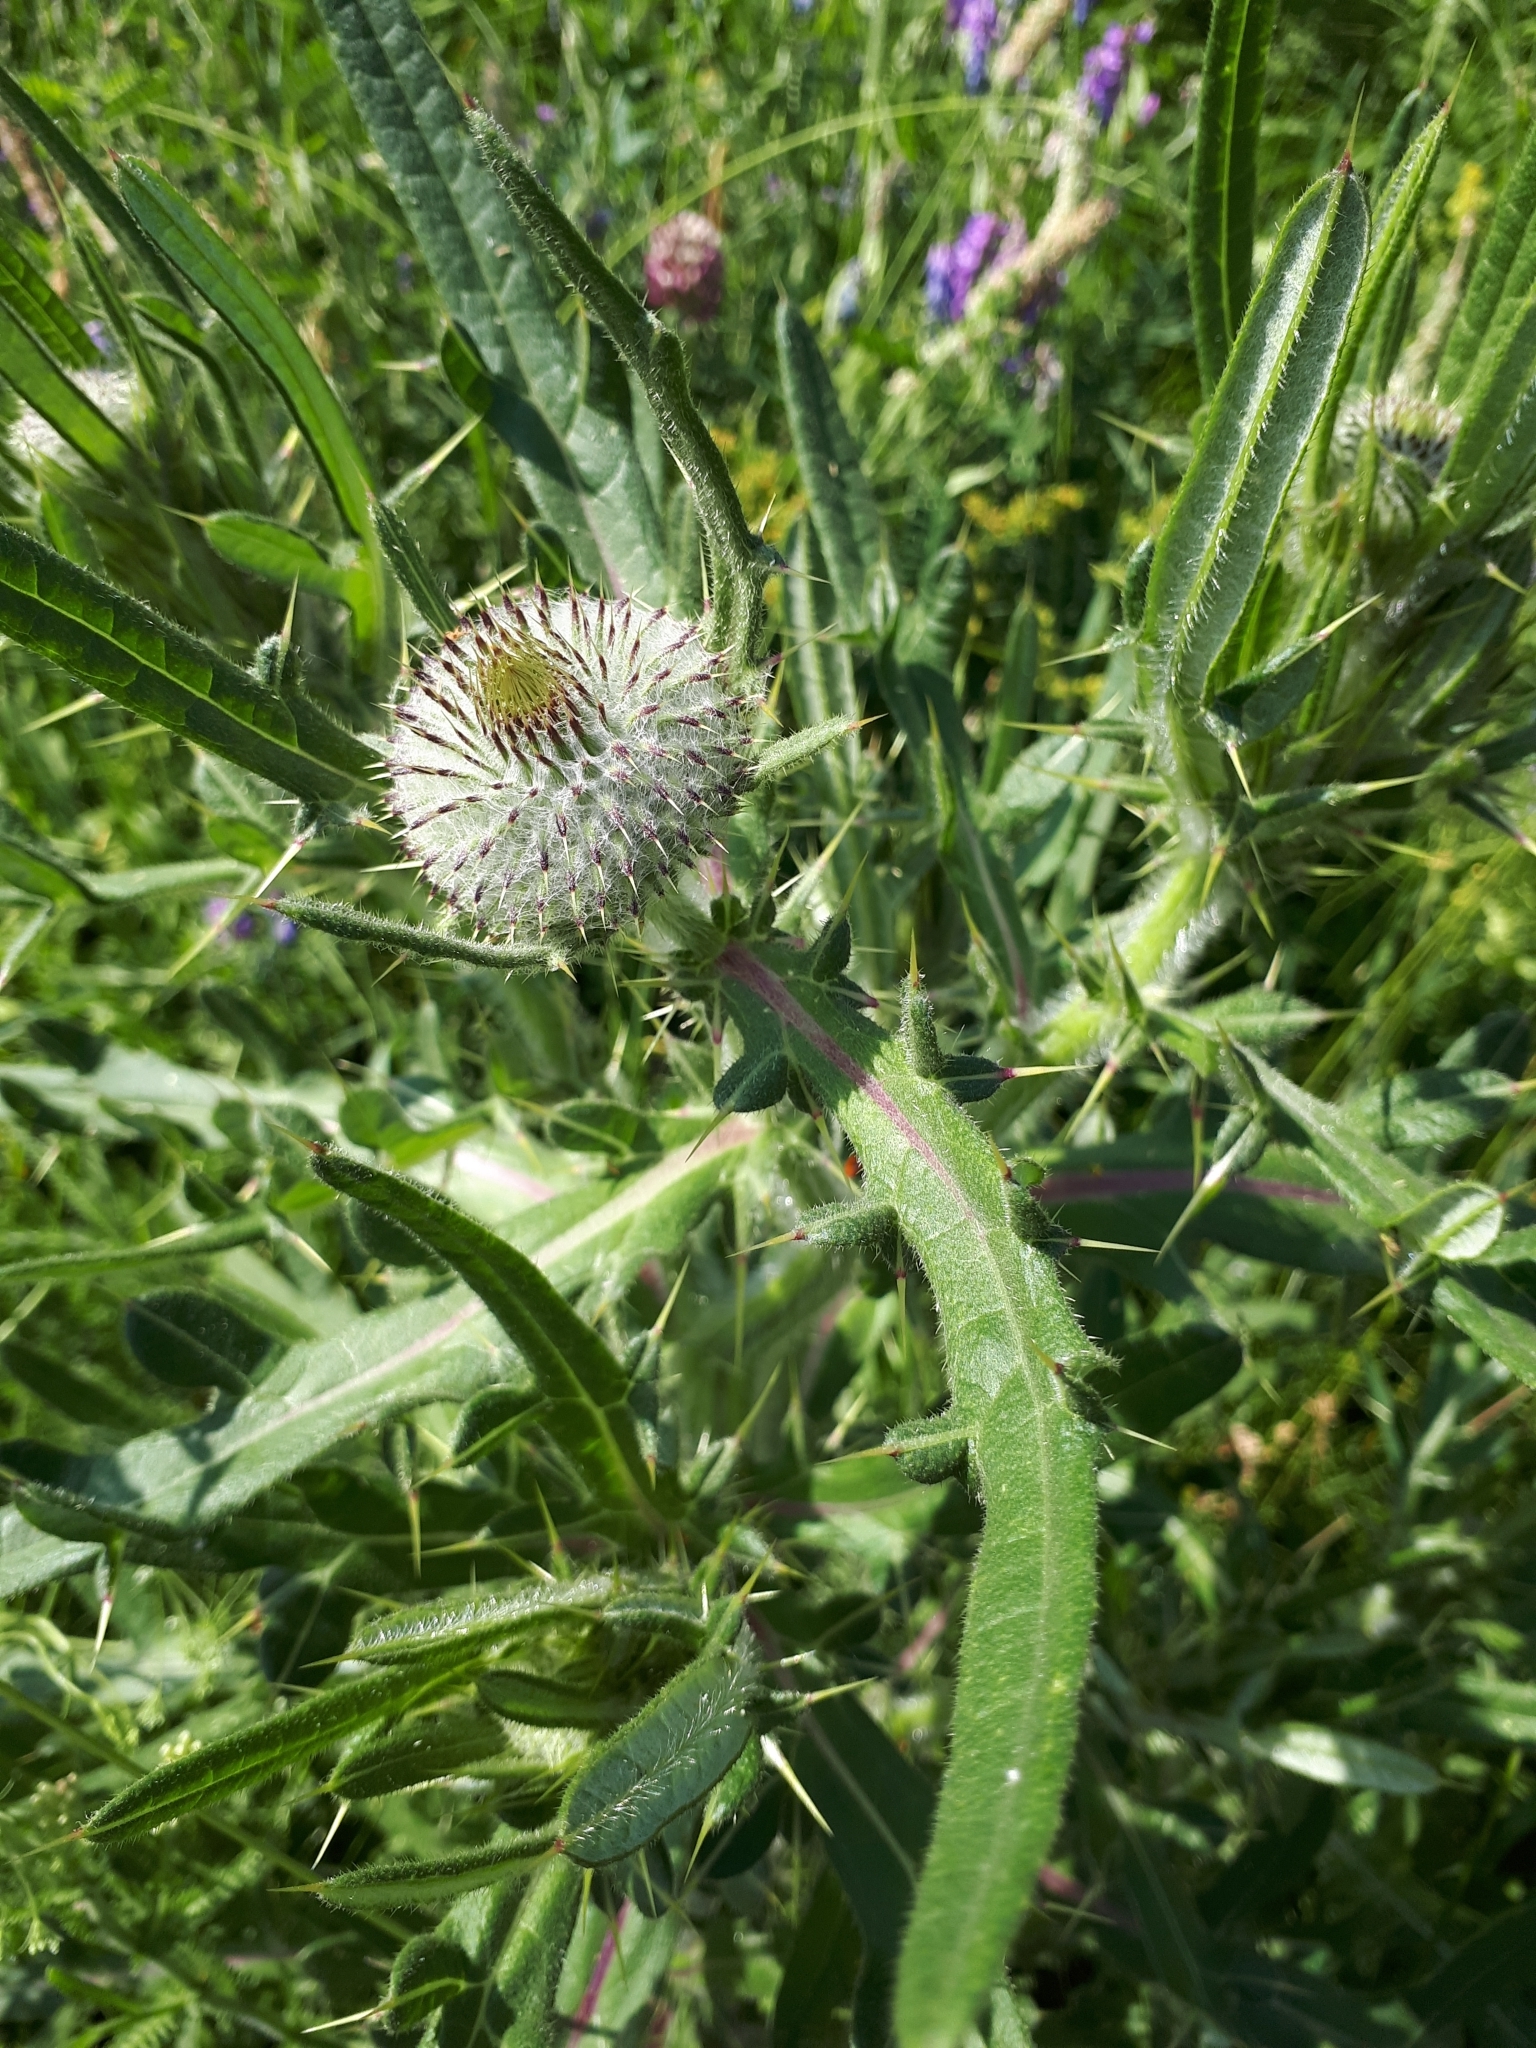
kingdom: Plantae
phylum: Tracheophyta
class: Magnoliopsida
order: Asterales
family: Asteraceae
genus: Lophiolepis
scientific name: Lophiolepis decussata
